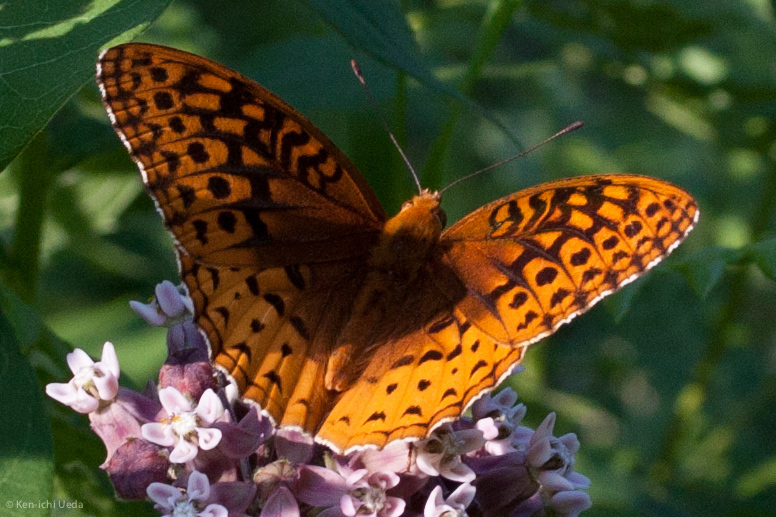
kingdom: Animalia
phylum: Arthropoda
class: Insecta
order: Lepidoptera
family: Nymphalidae
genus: Speyeria
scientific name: Speyeria cybele
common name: Great spangled fritillary
